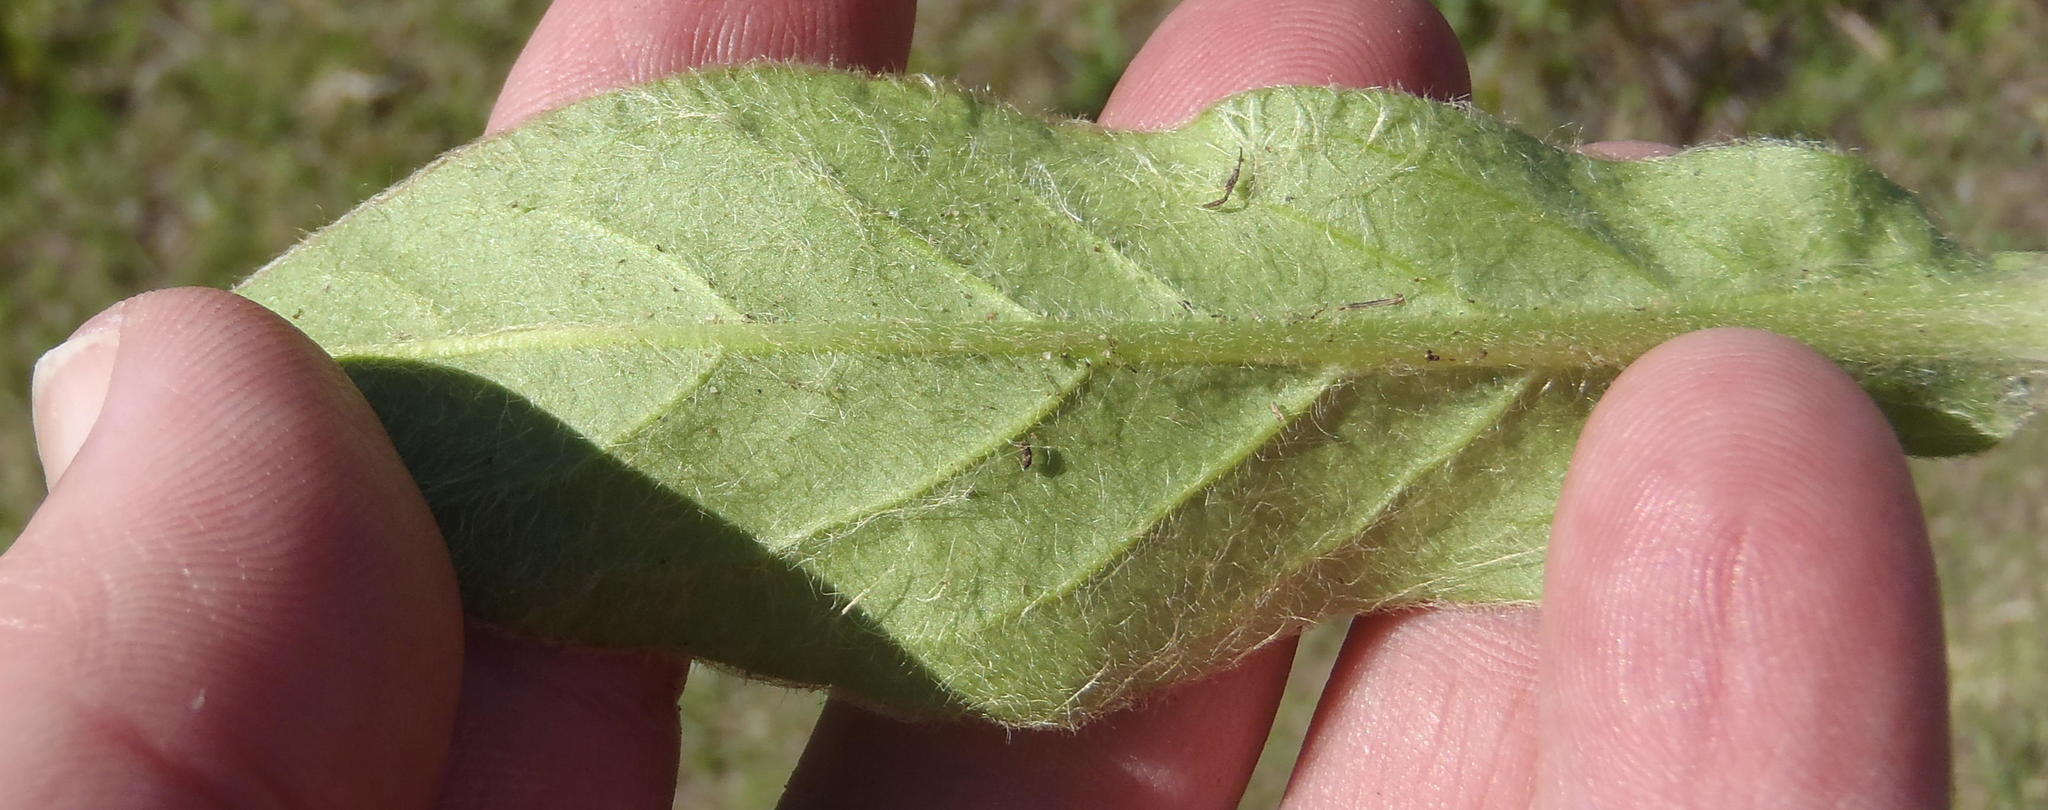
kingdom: Plantae
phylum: Tracheophyta
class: Magnoliopsida
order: Asterales
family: Asteraceae
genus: Piloselloides
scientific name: Piloselloides hirsuta
